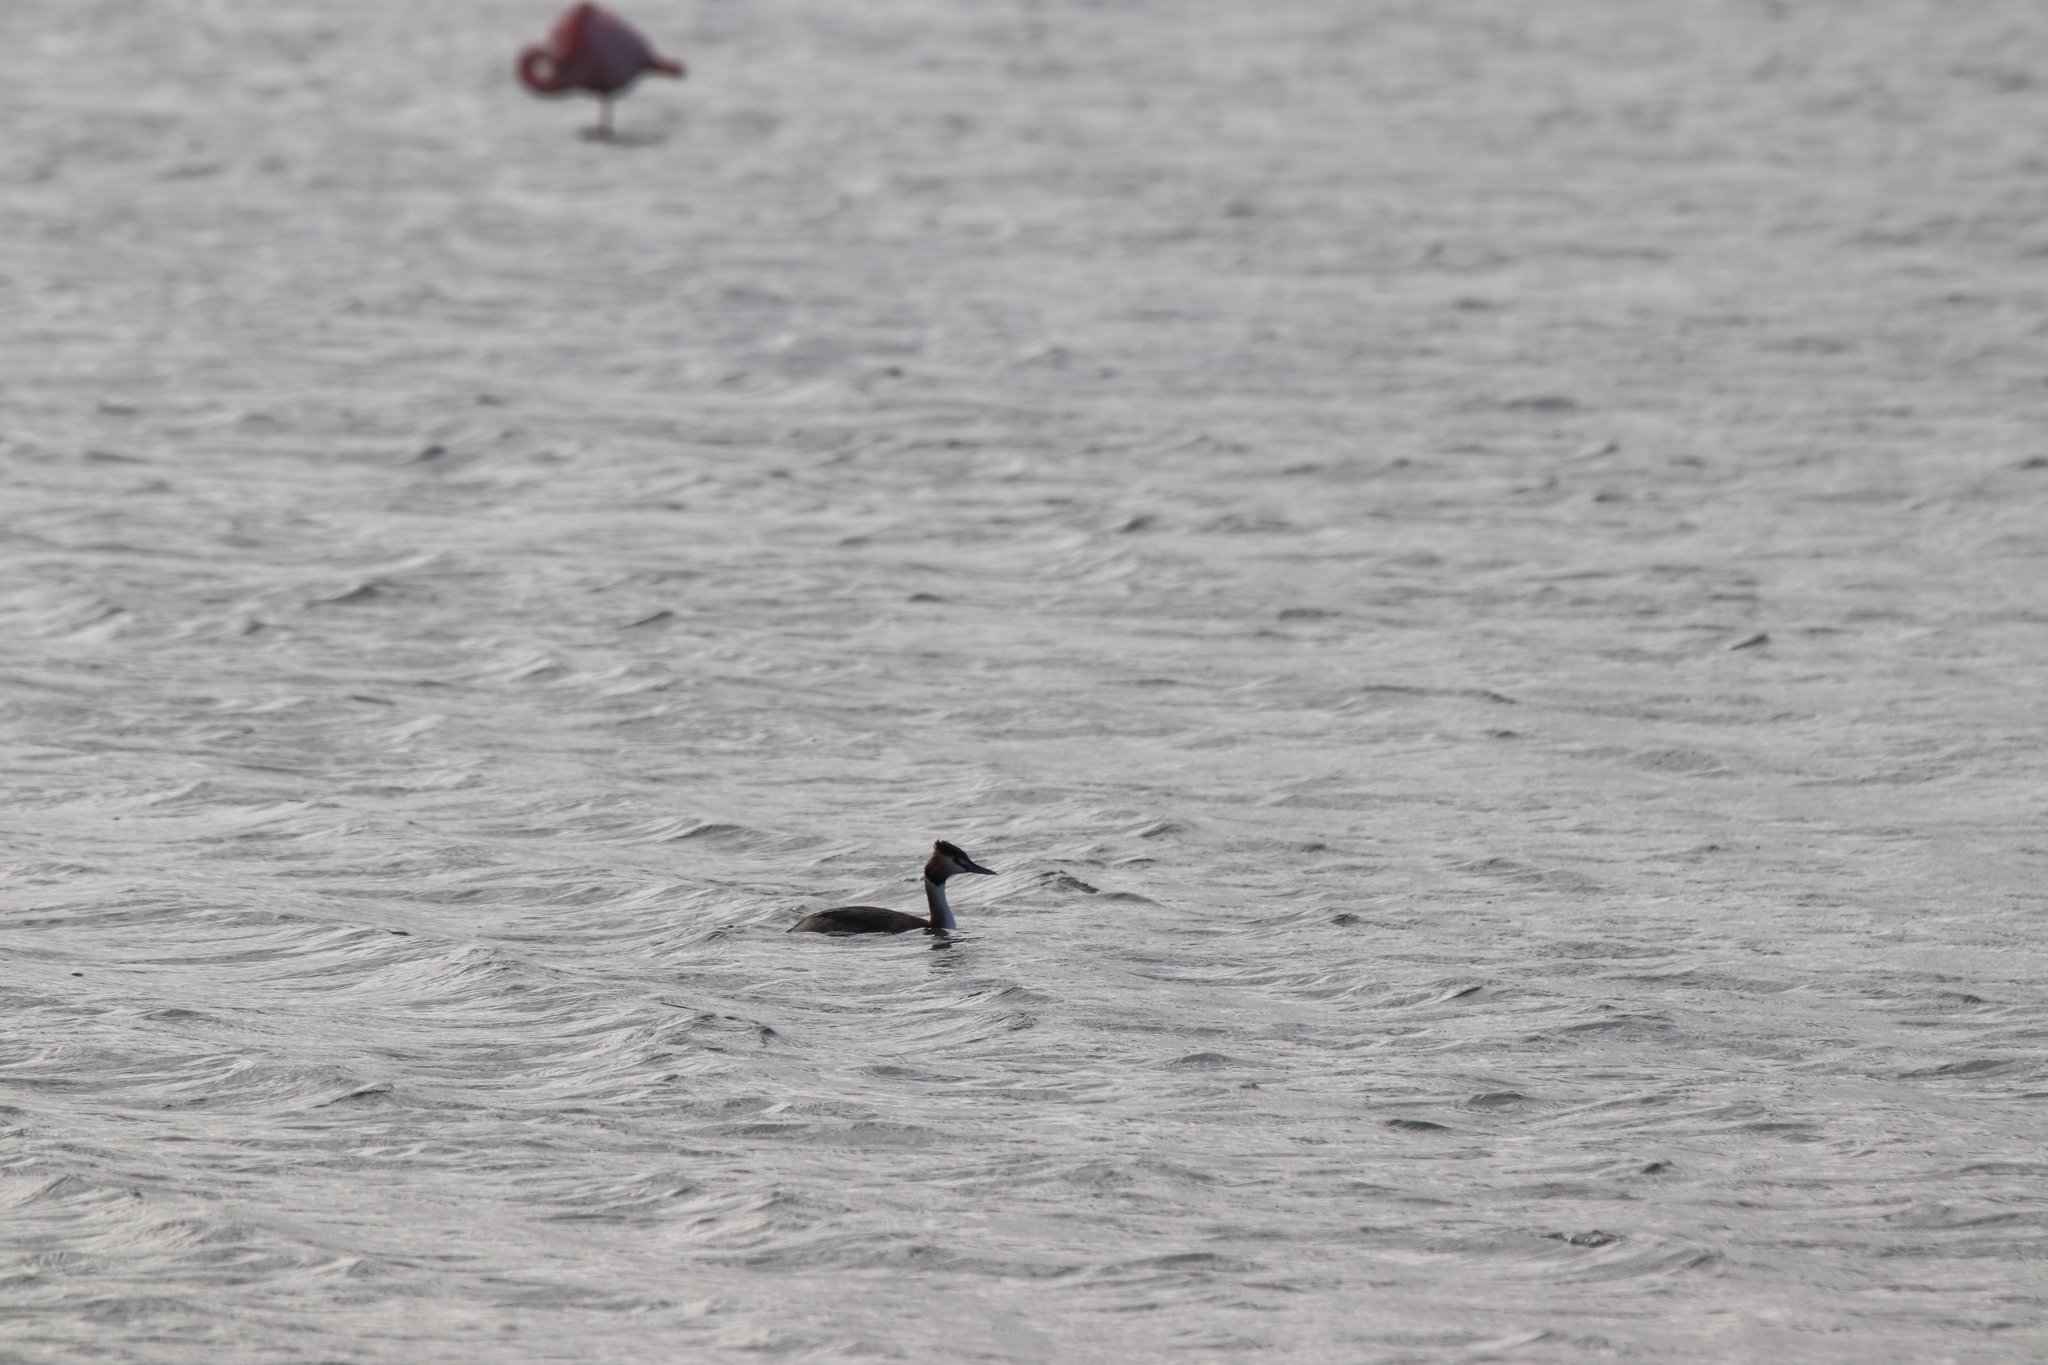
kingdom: Animalia
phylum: Chordata
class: Aves
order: Podicipediformes
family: Podicipedidae
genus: Podiceps
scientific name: Podiceps cristatus
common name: Great crested grebe
